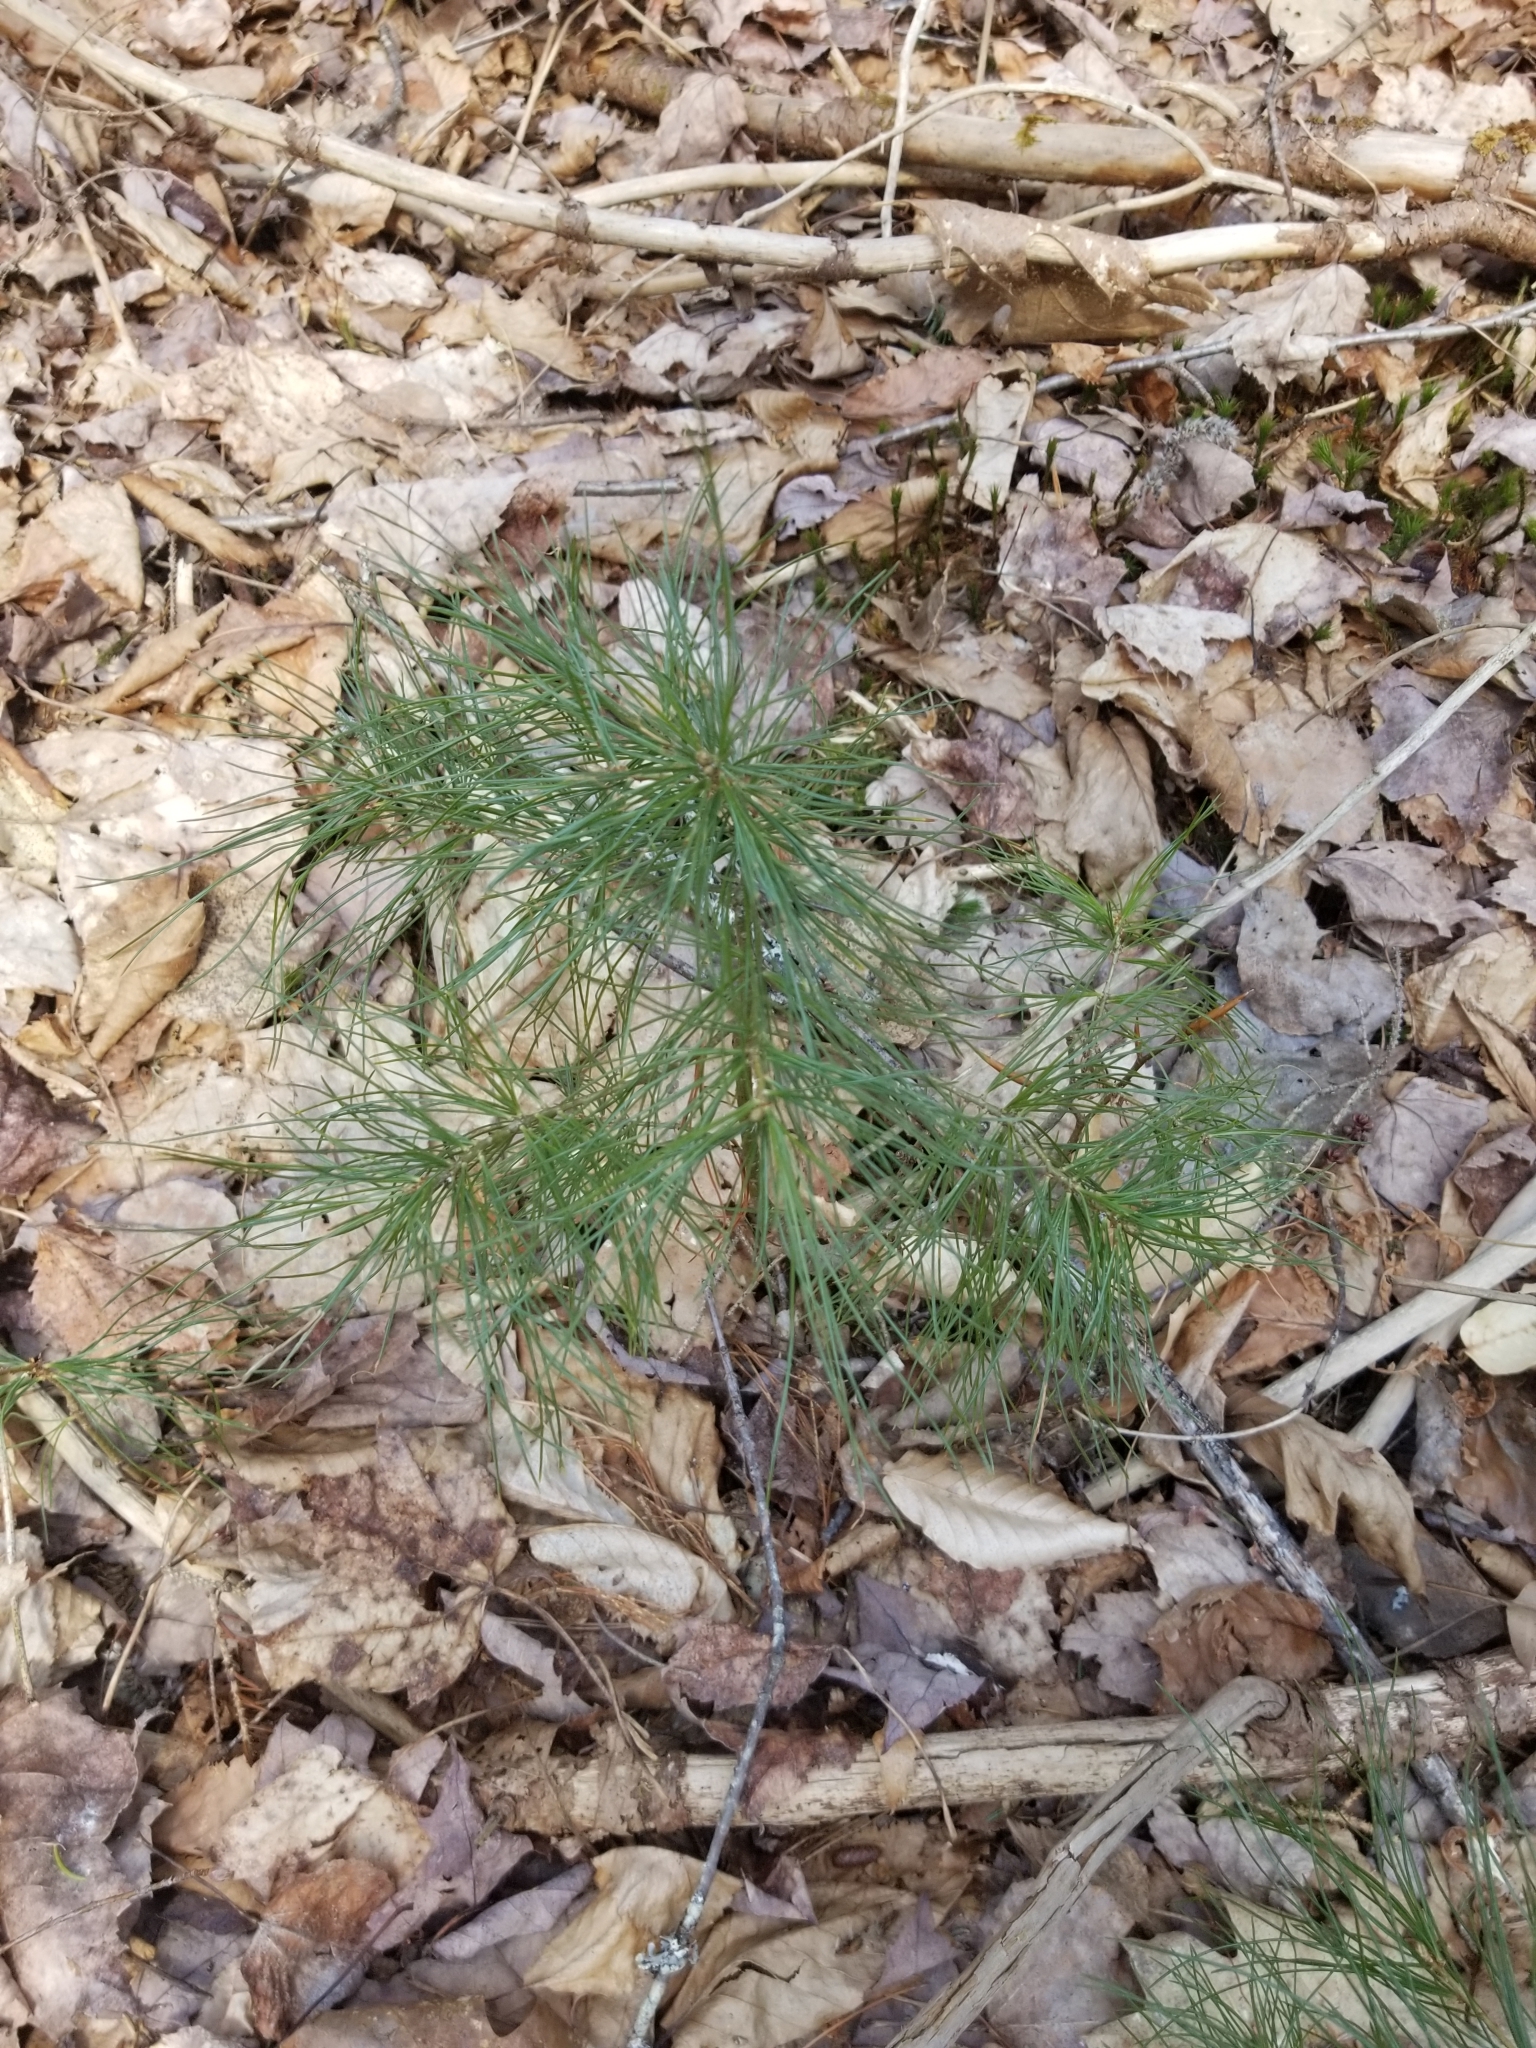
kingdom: Plantae
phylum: Tracheophyta
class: Pinopsida
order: Pinales
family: Pinaceae
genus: Pinus
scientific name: Pinus strobus
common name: Weymouth pine
